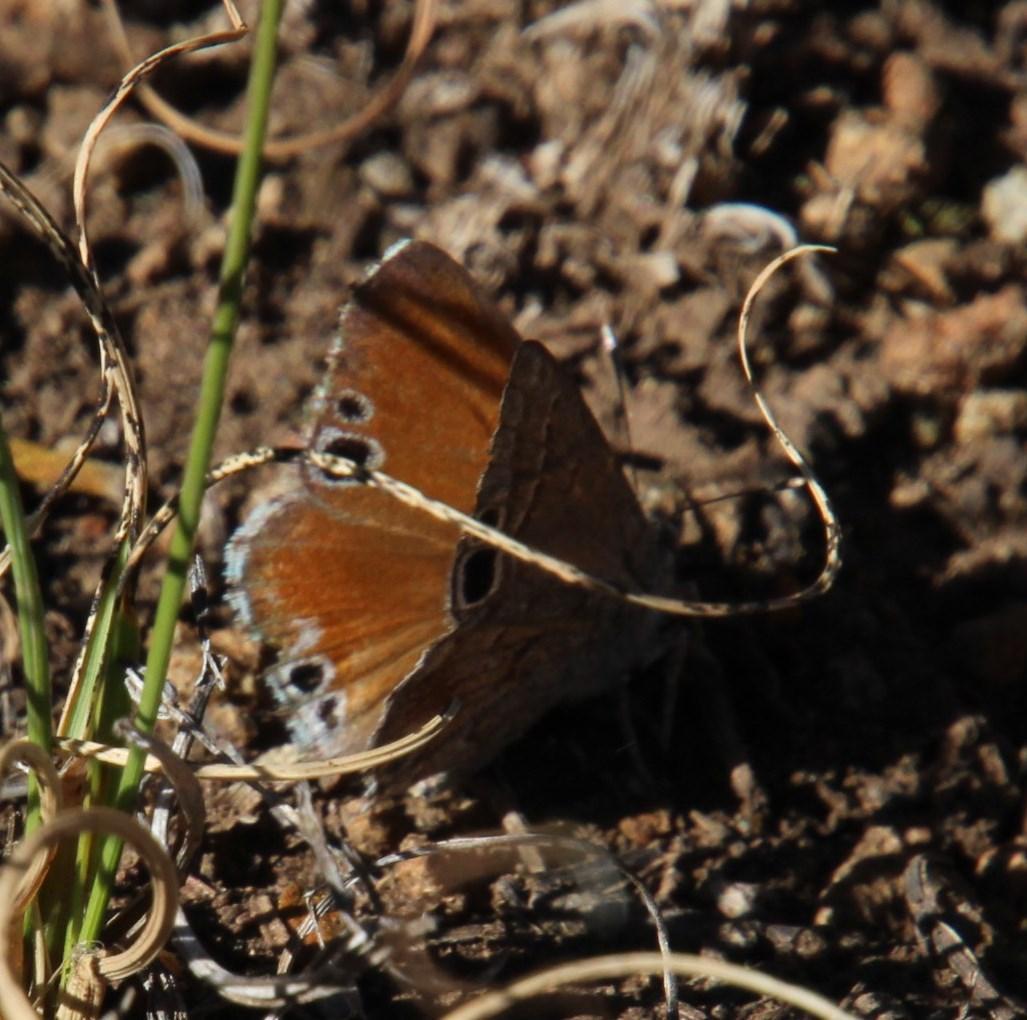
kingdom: Animalia
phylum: Arthropoda
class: Insecta
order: Lepidoptera
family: Lycaenidae
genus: Leptomyrina
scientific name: Leptomyrina lara
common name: Cape black-eye
